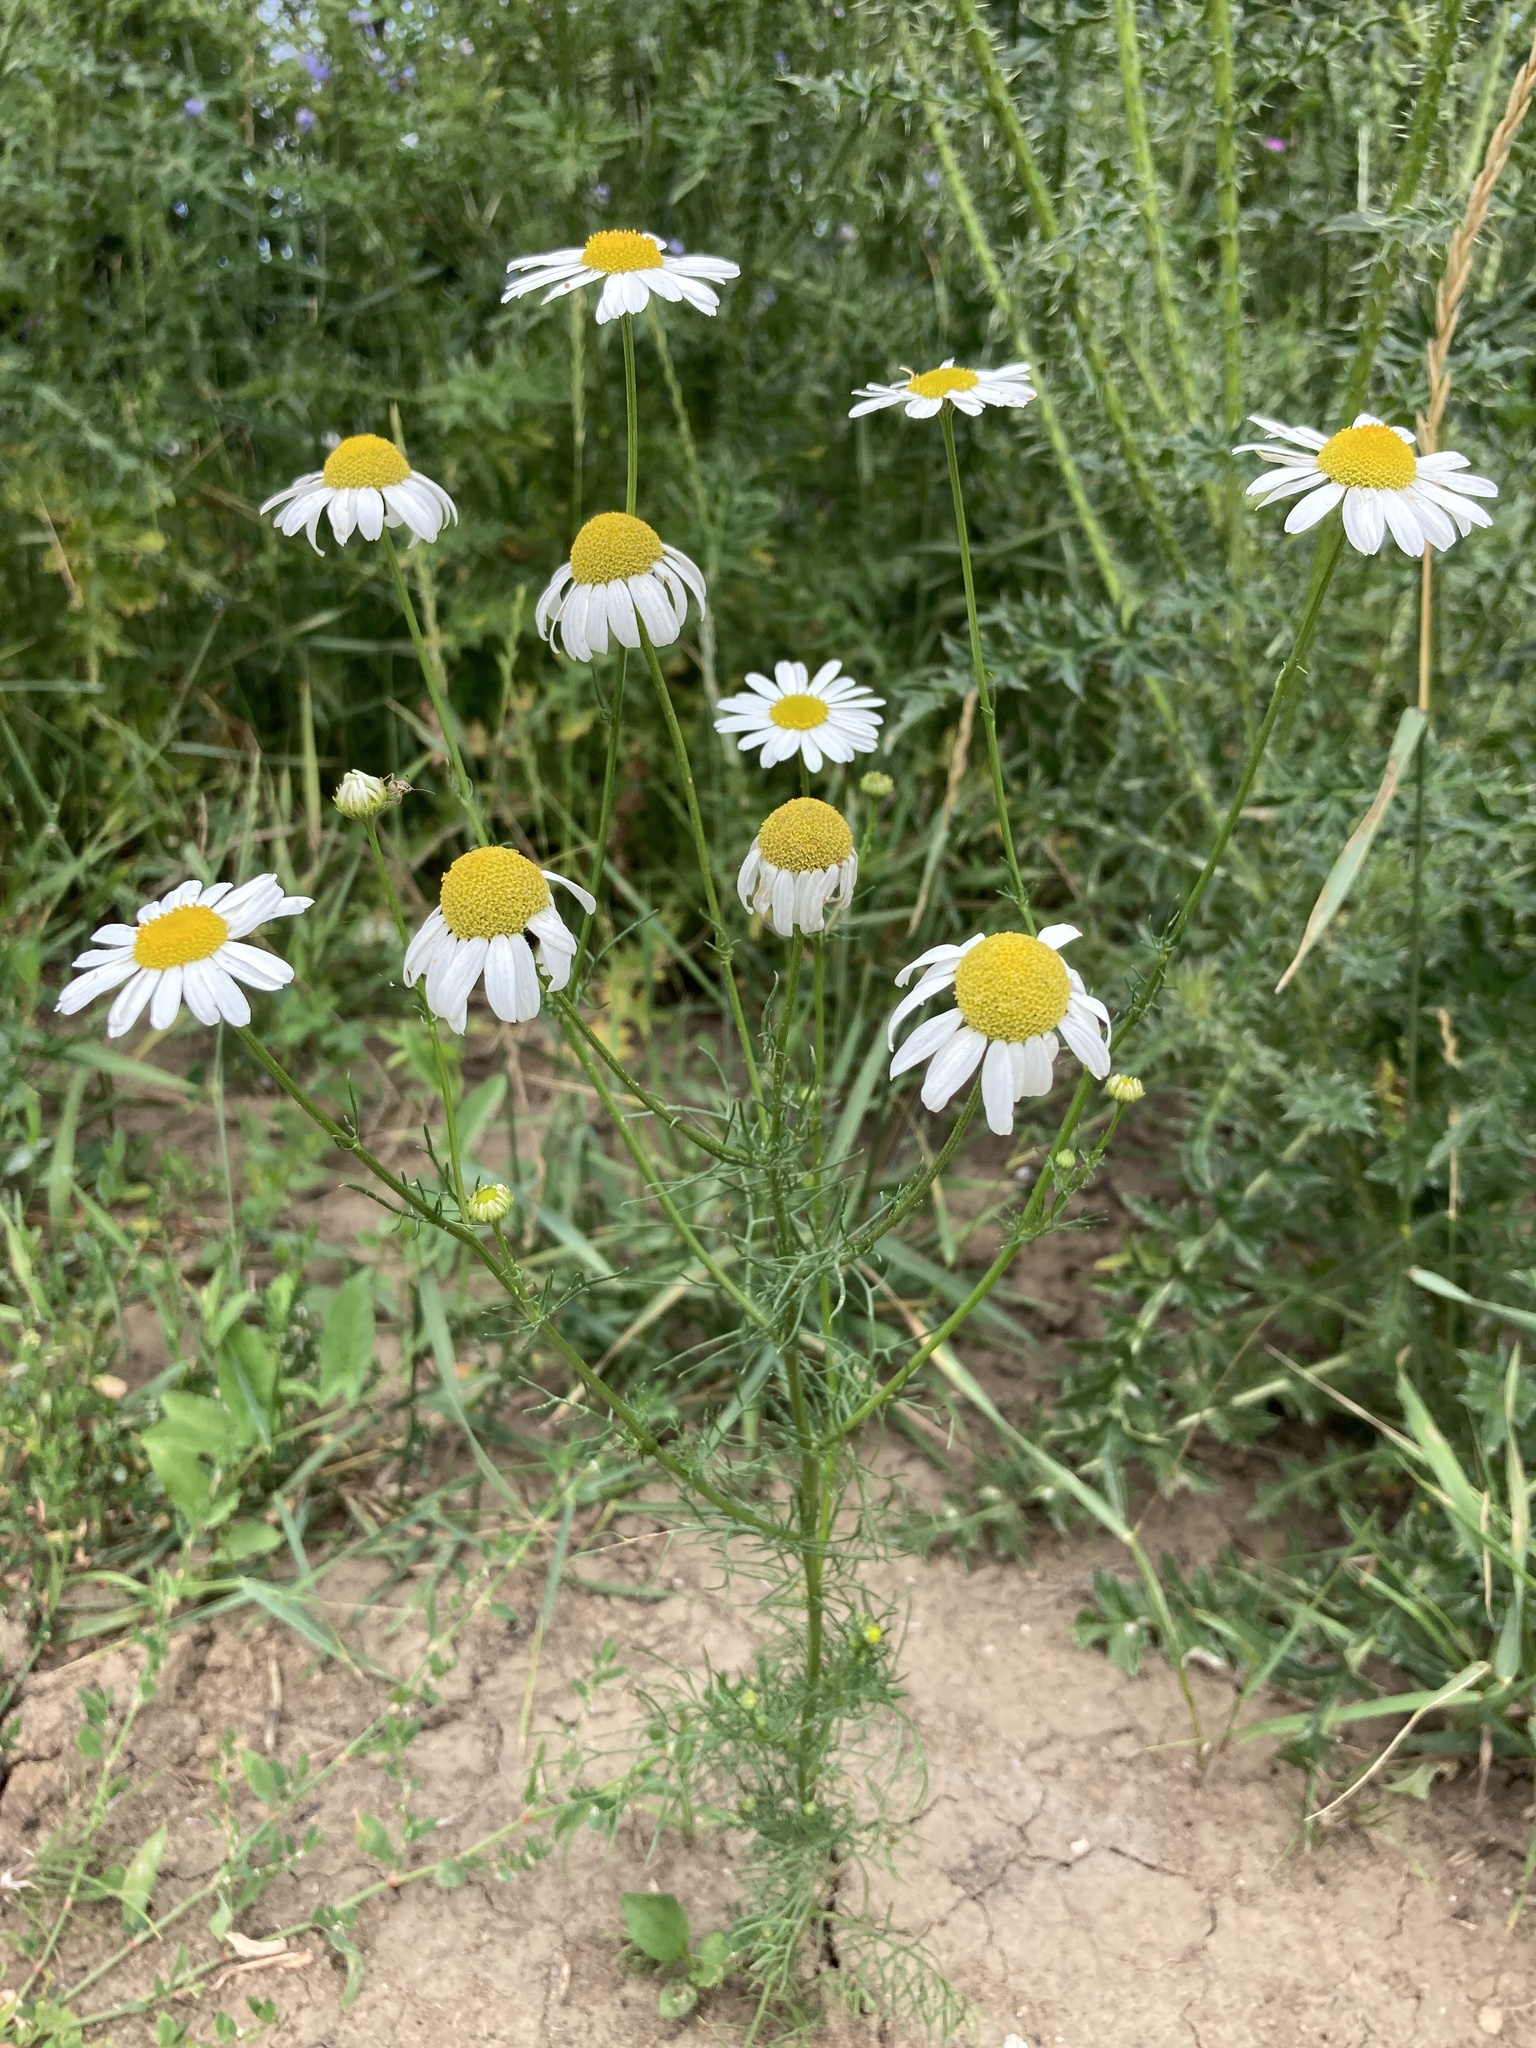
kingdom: Plantae
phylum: Tracheophyta
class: Magnoliopsida
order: Asterales
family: Asteraceae
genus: Tripleurospermum
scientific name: Tripleurospermum inodorum
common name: Scentless mayweed
